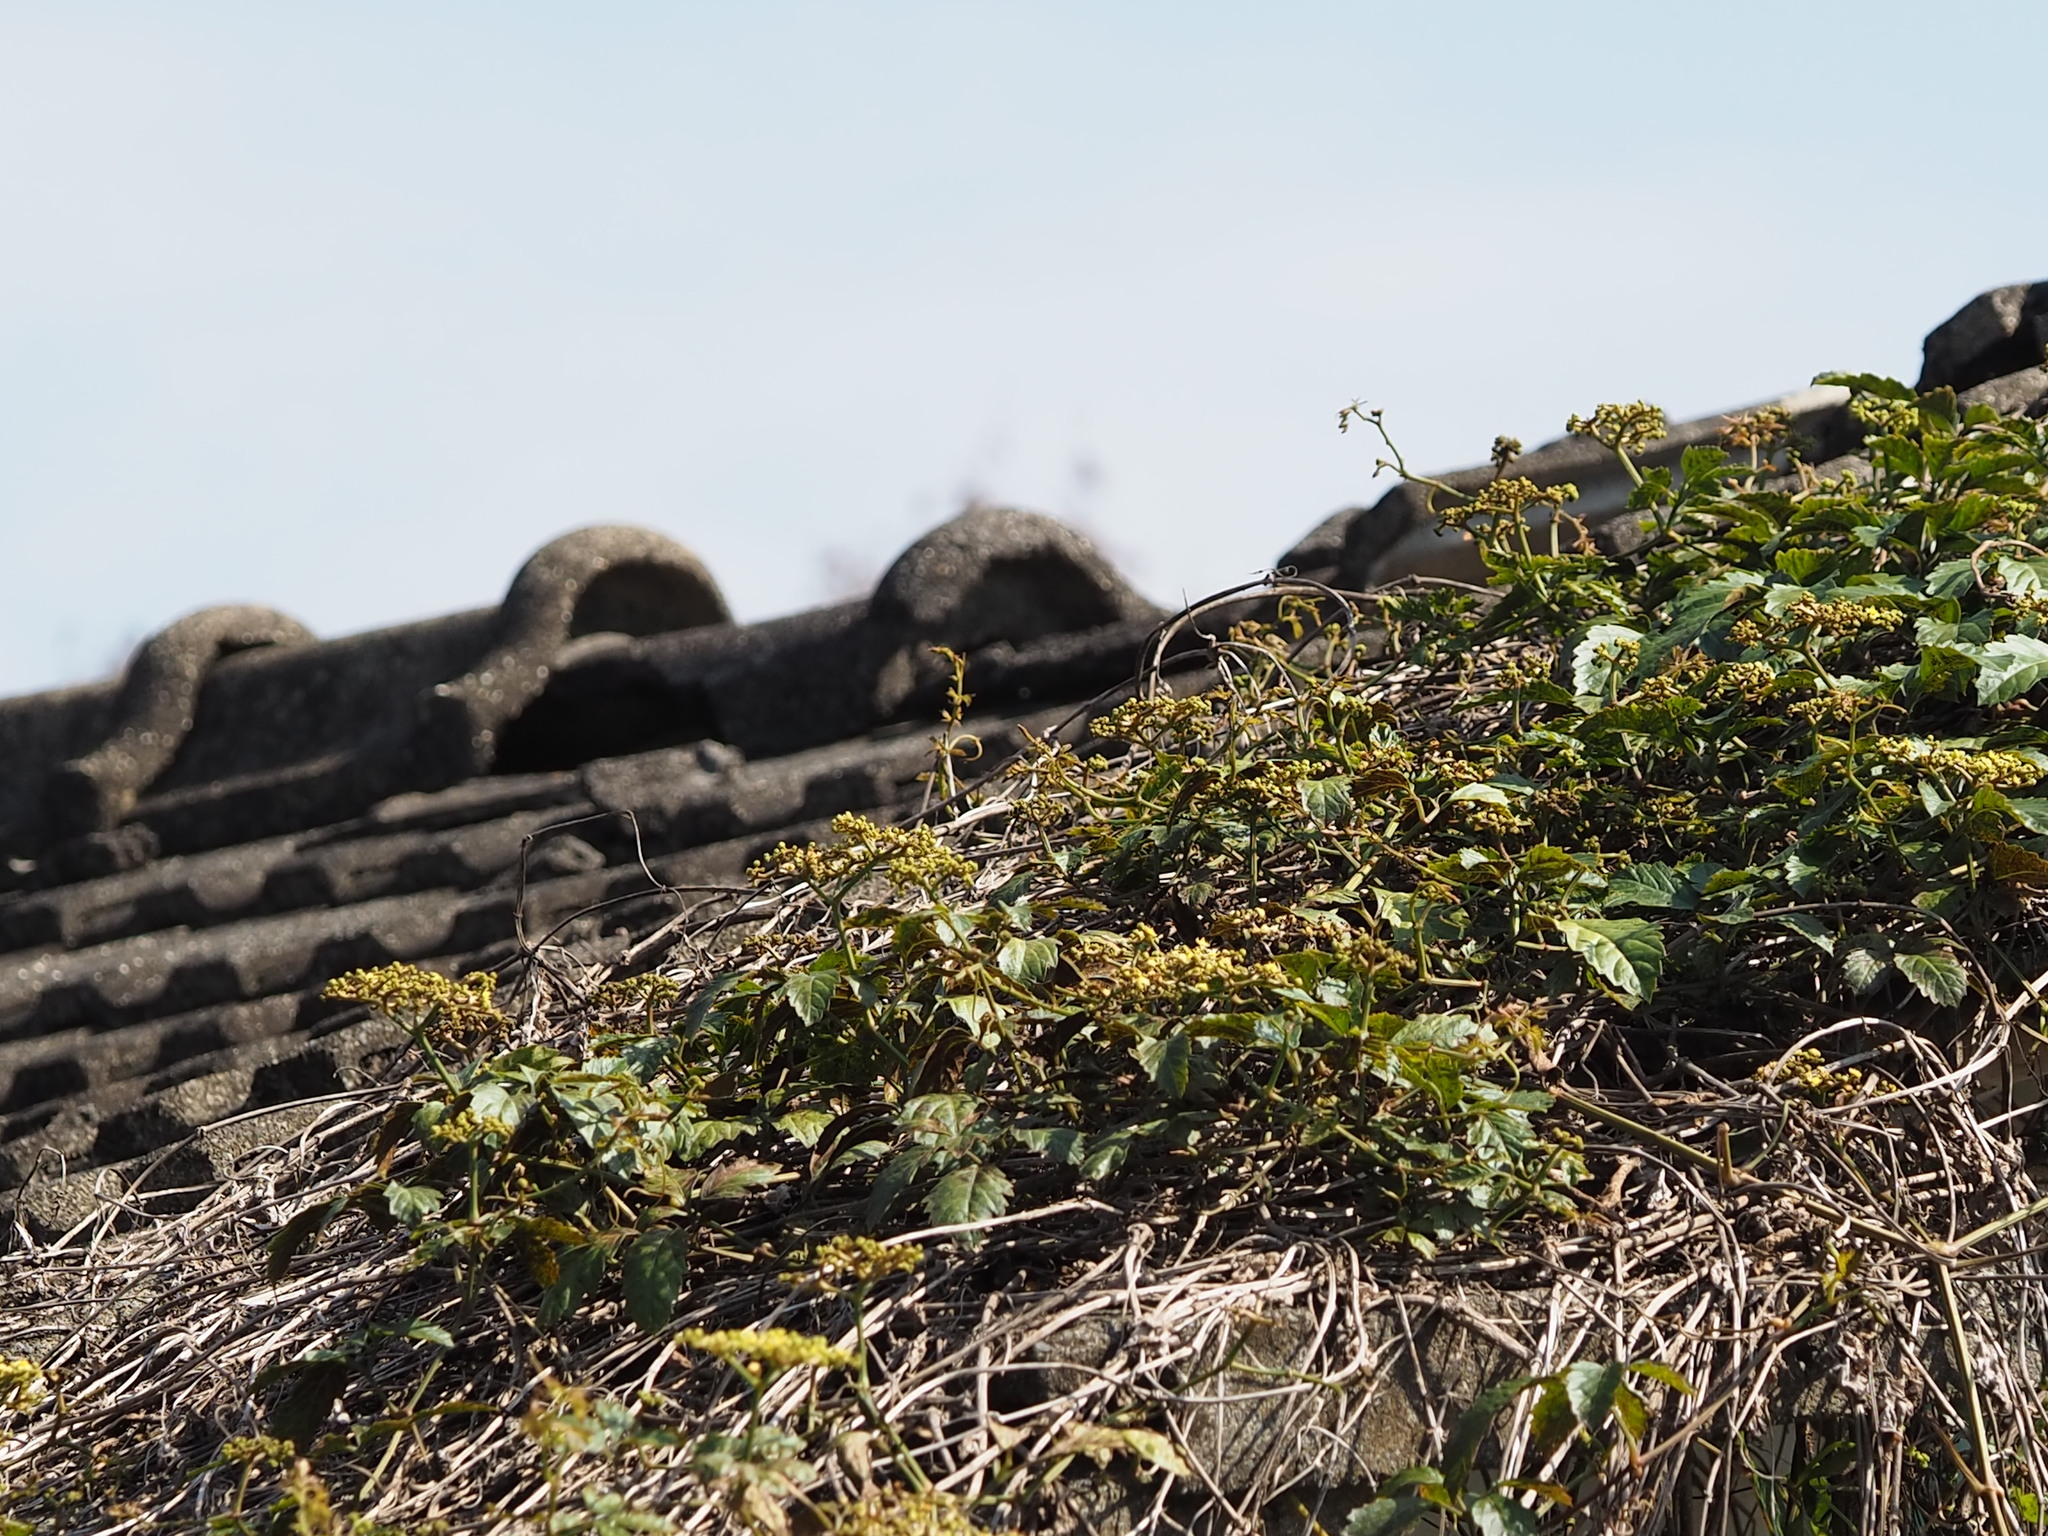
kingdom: Plantae
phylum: Tracheophyta
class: Magnoliopsida
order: Vitales
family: Vitaceae
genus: Causonis
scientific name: Causonis japonica
